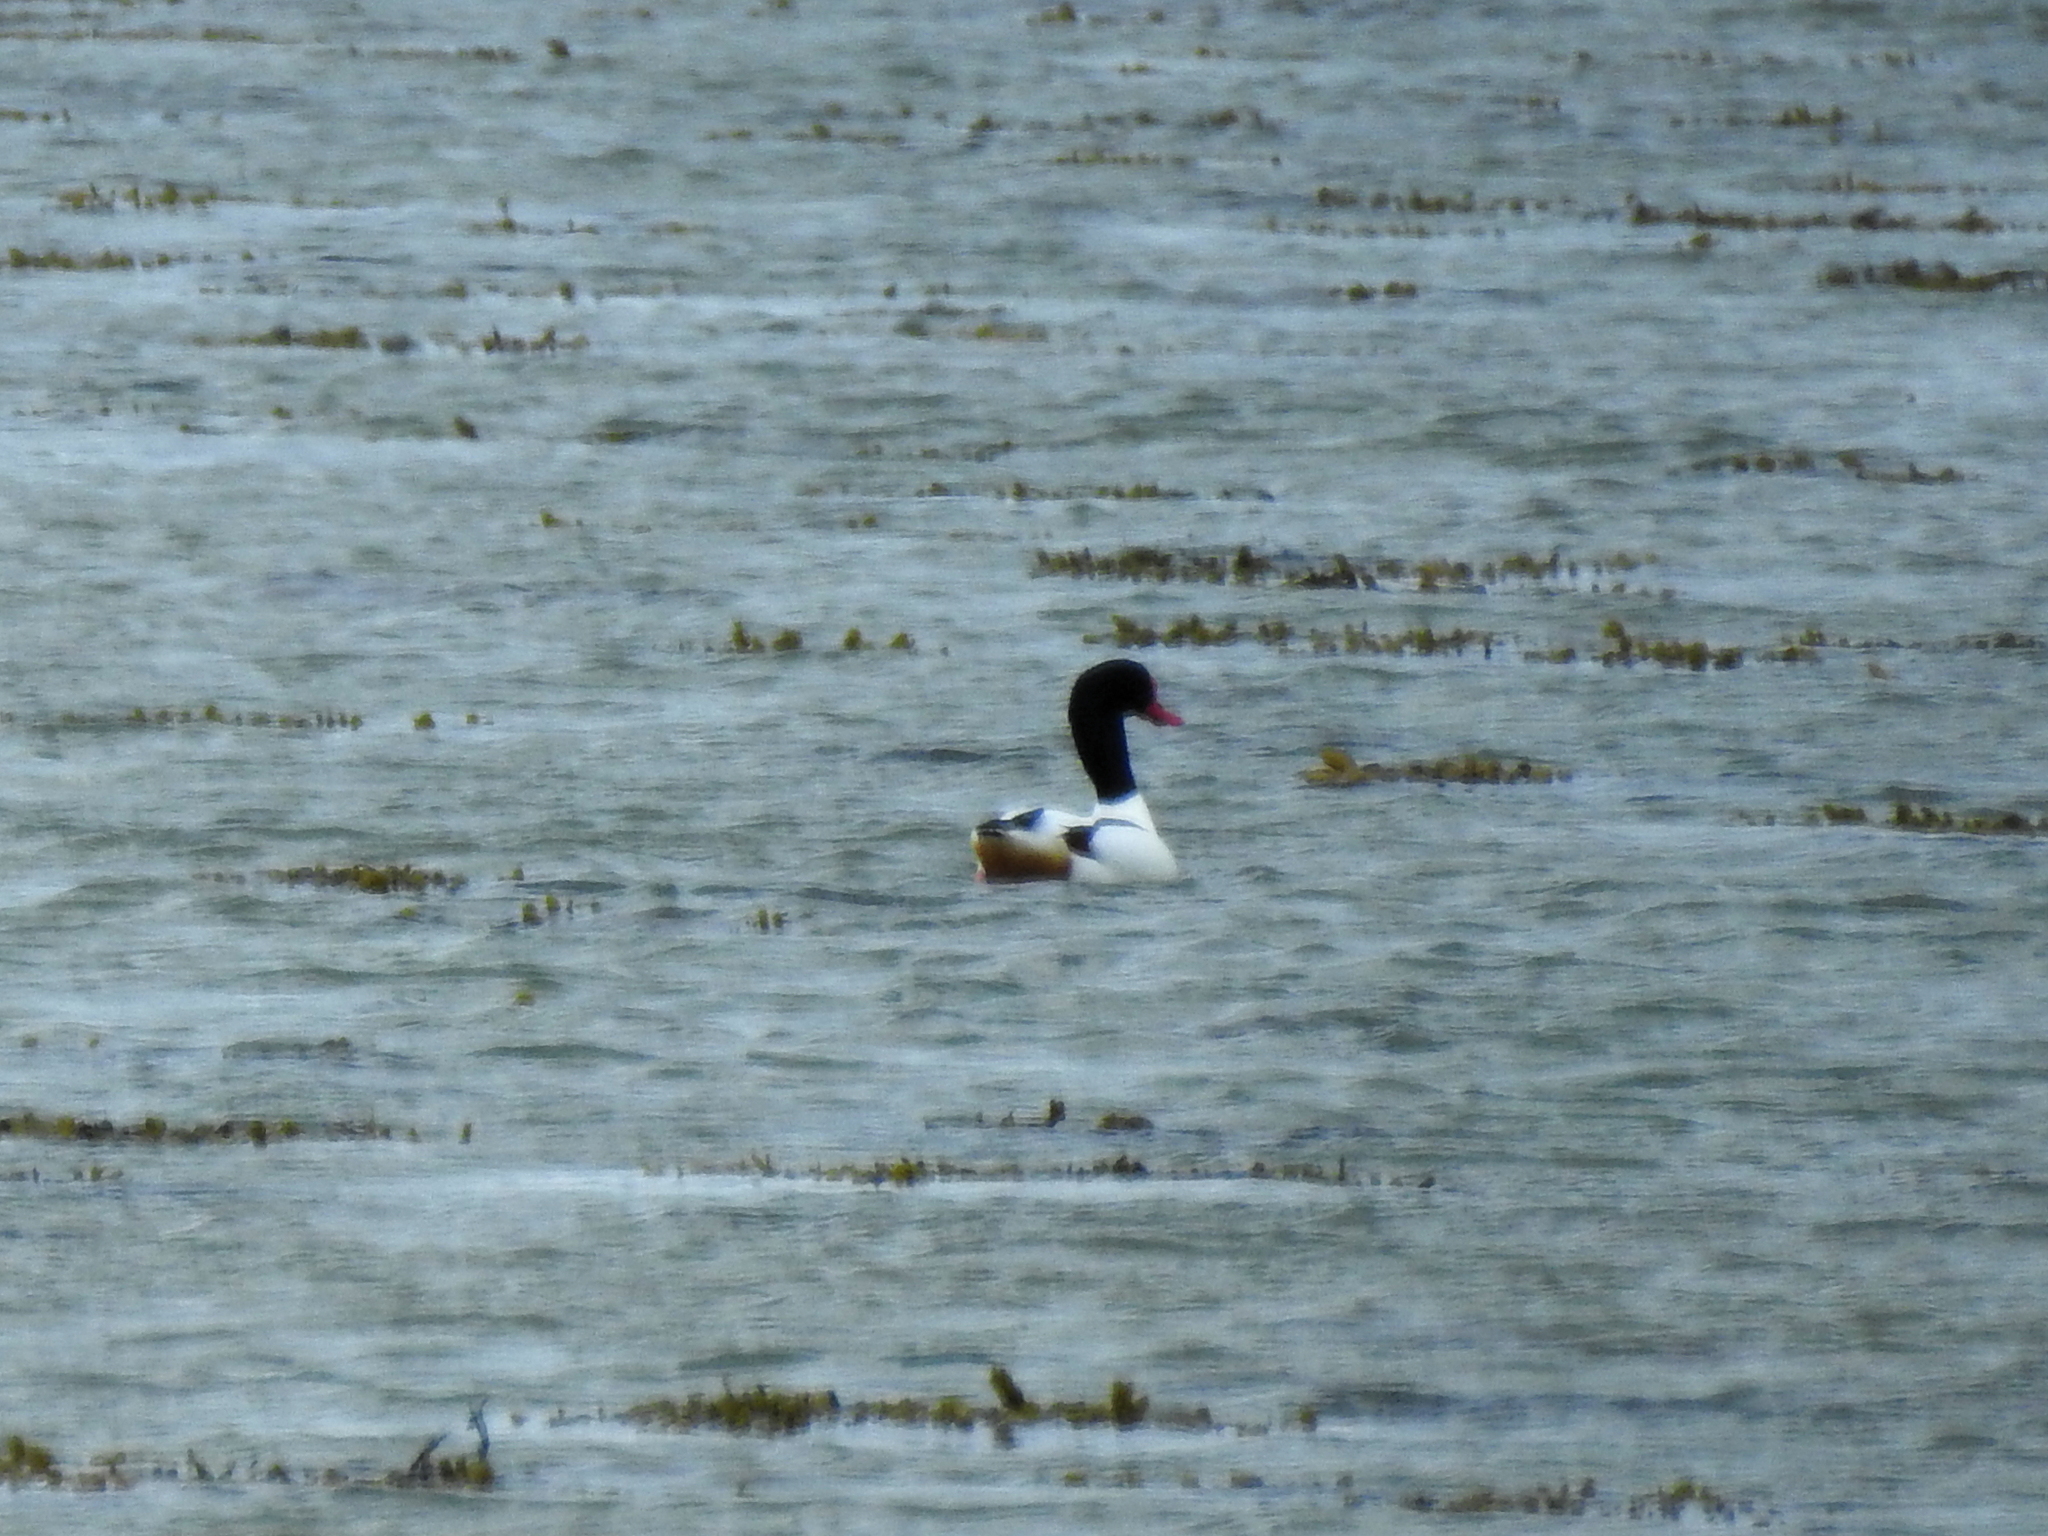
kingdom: Animalia
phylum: Chordata
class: Aves
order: Anseriformes
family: Anatidae
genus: Tadorna
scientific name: Tadorna tadorna
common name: Common shelduck
